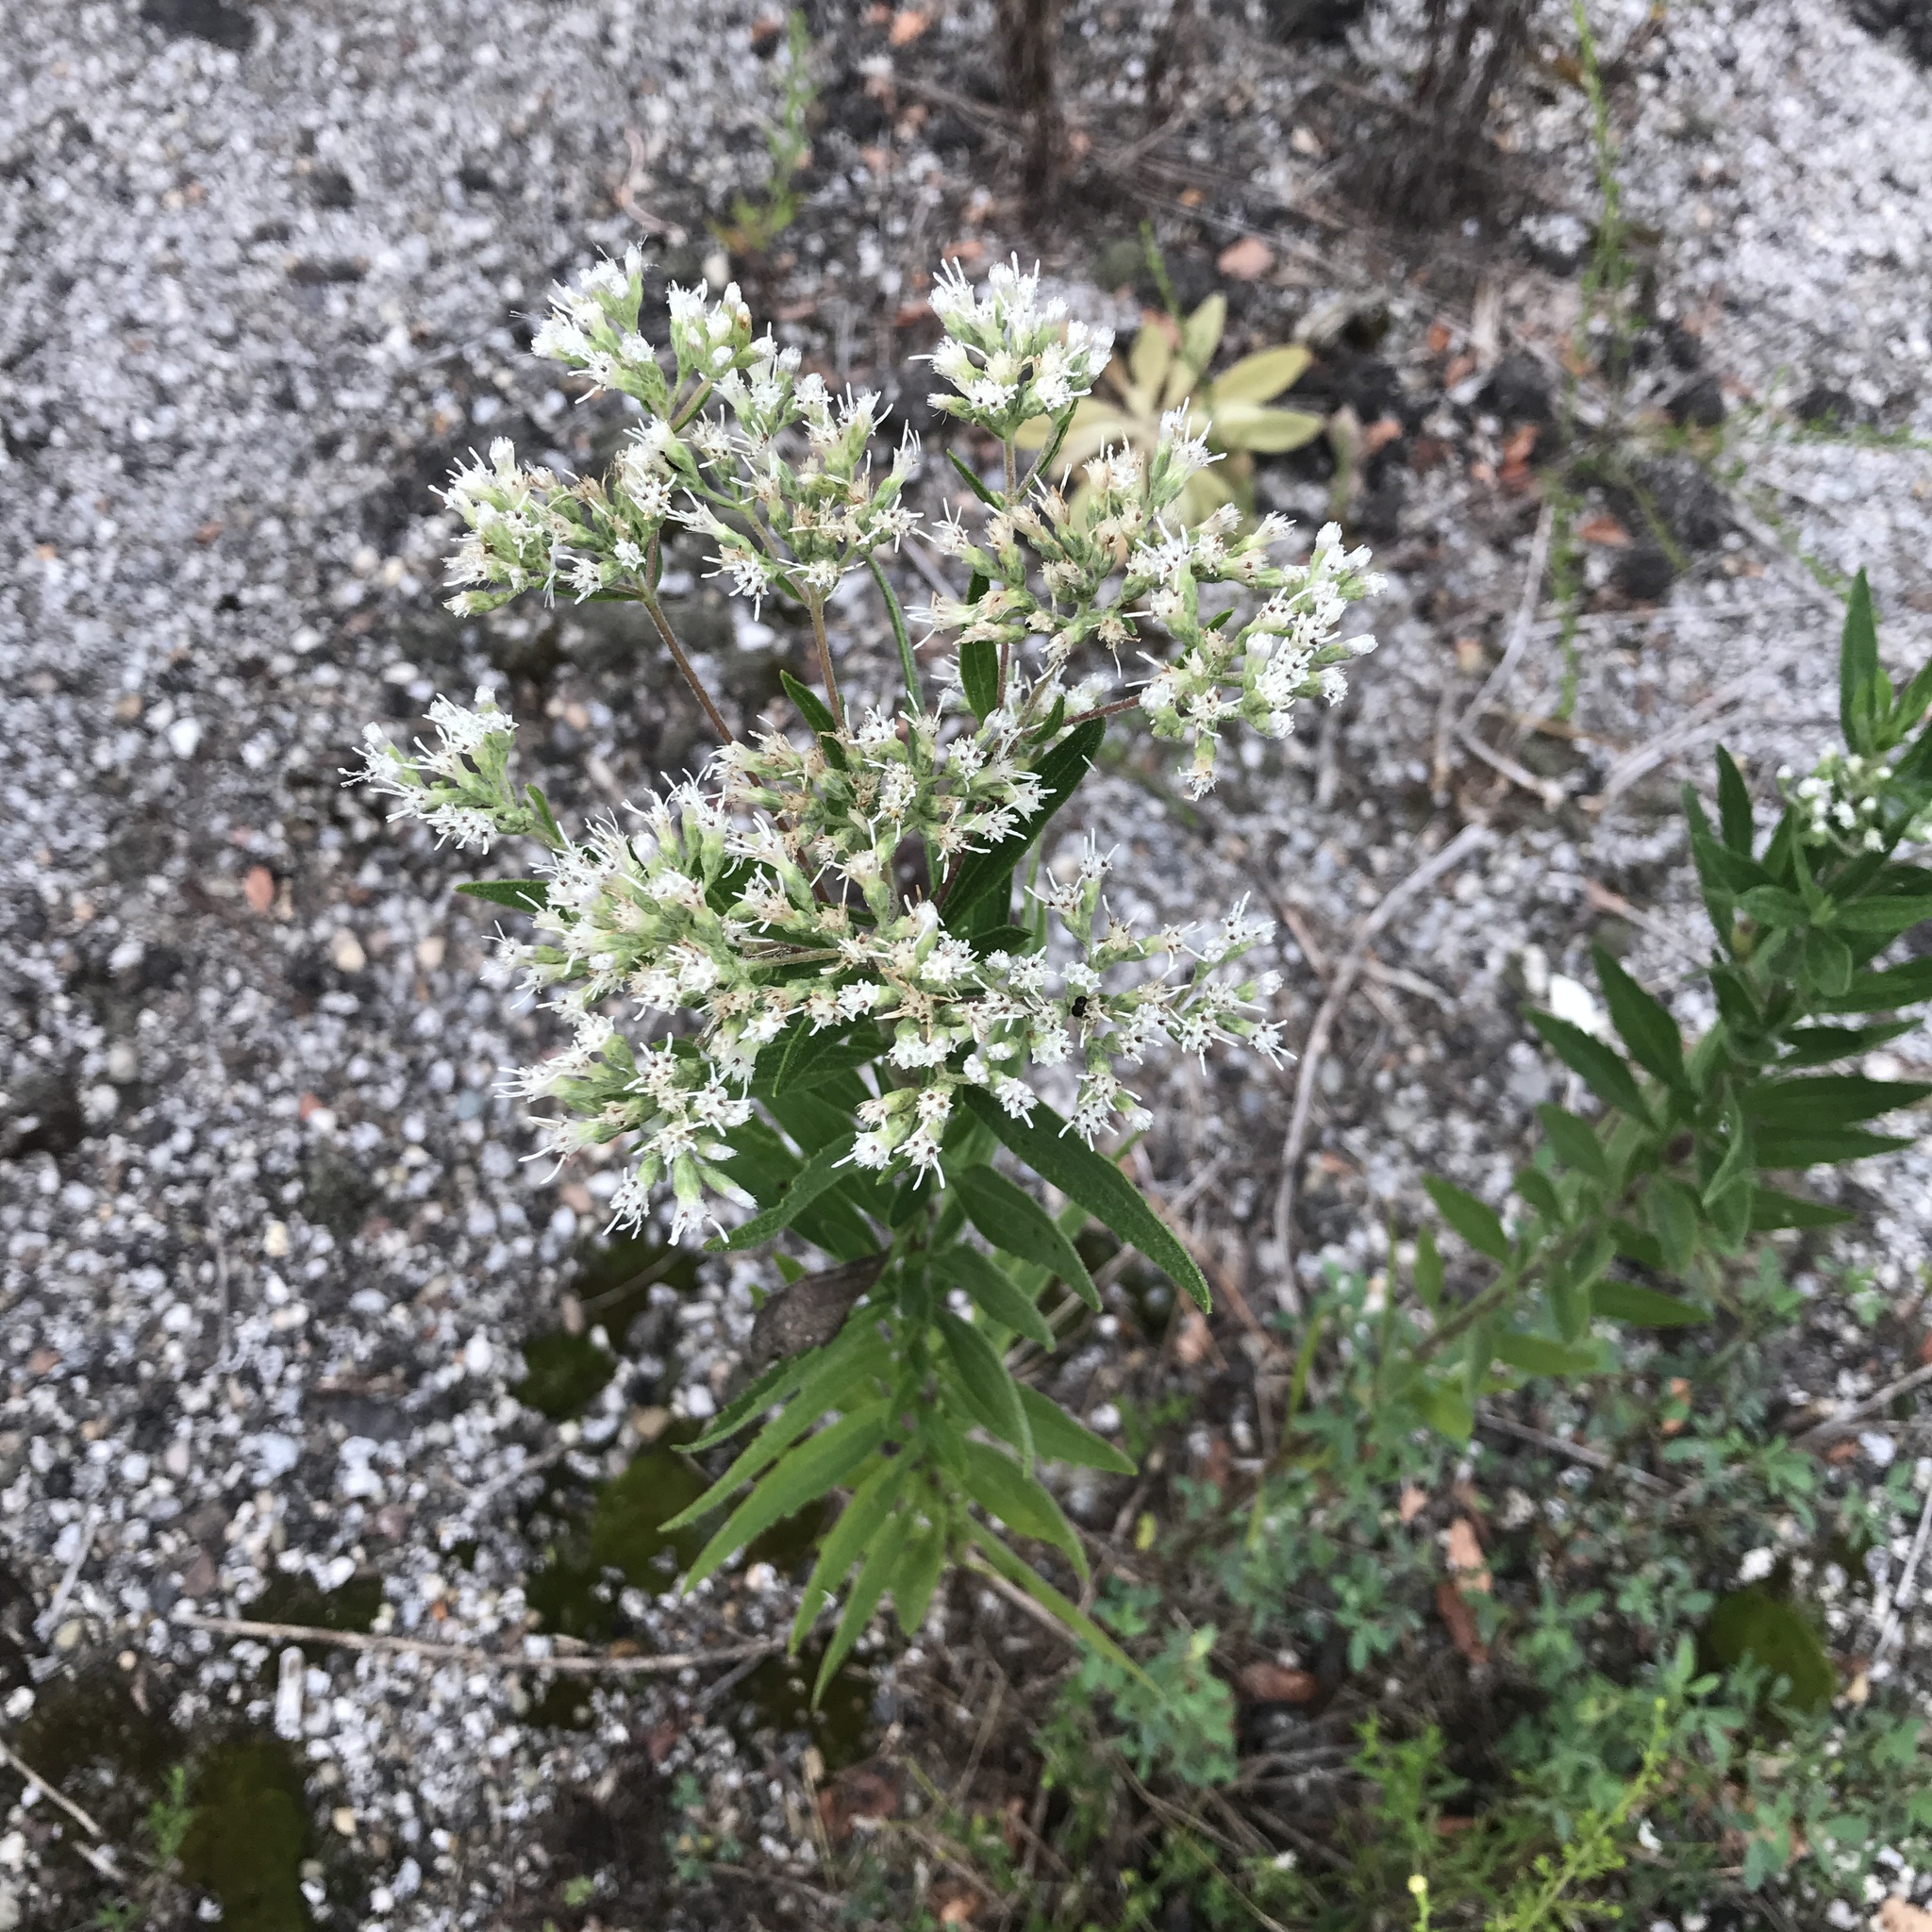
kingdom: Plantae
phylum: Tracheophyta
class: Magnoliopsida
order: Asterales
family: Asteraceae
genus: Eupatorium
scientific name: Eupatorium altissimum
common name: Tall thoroughwort
